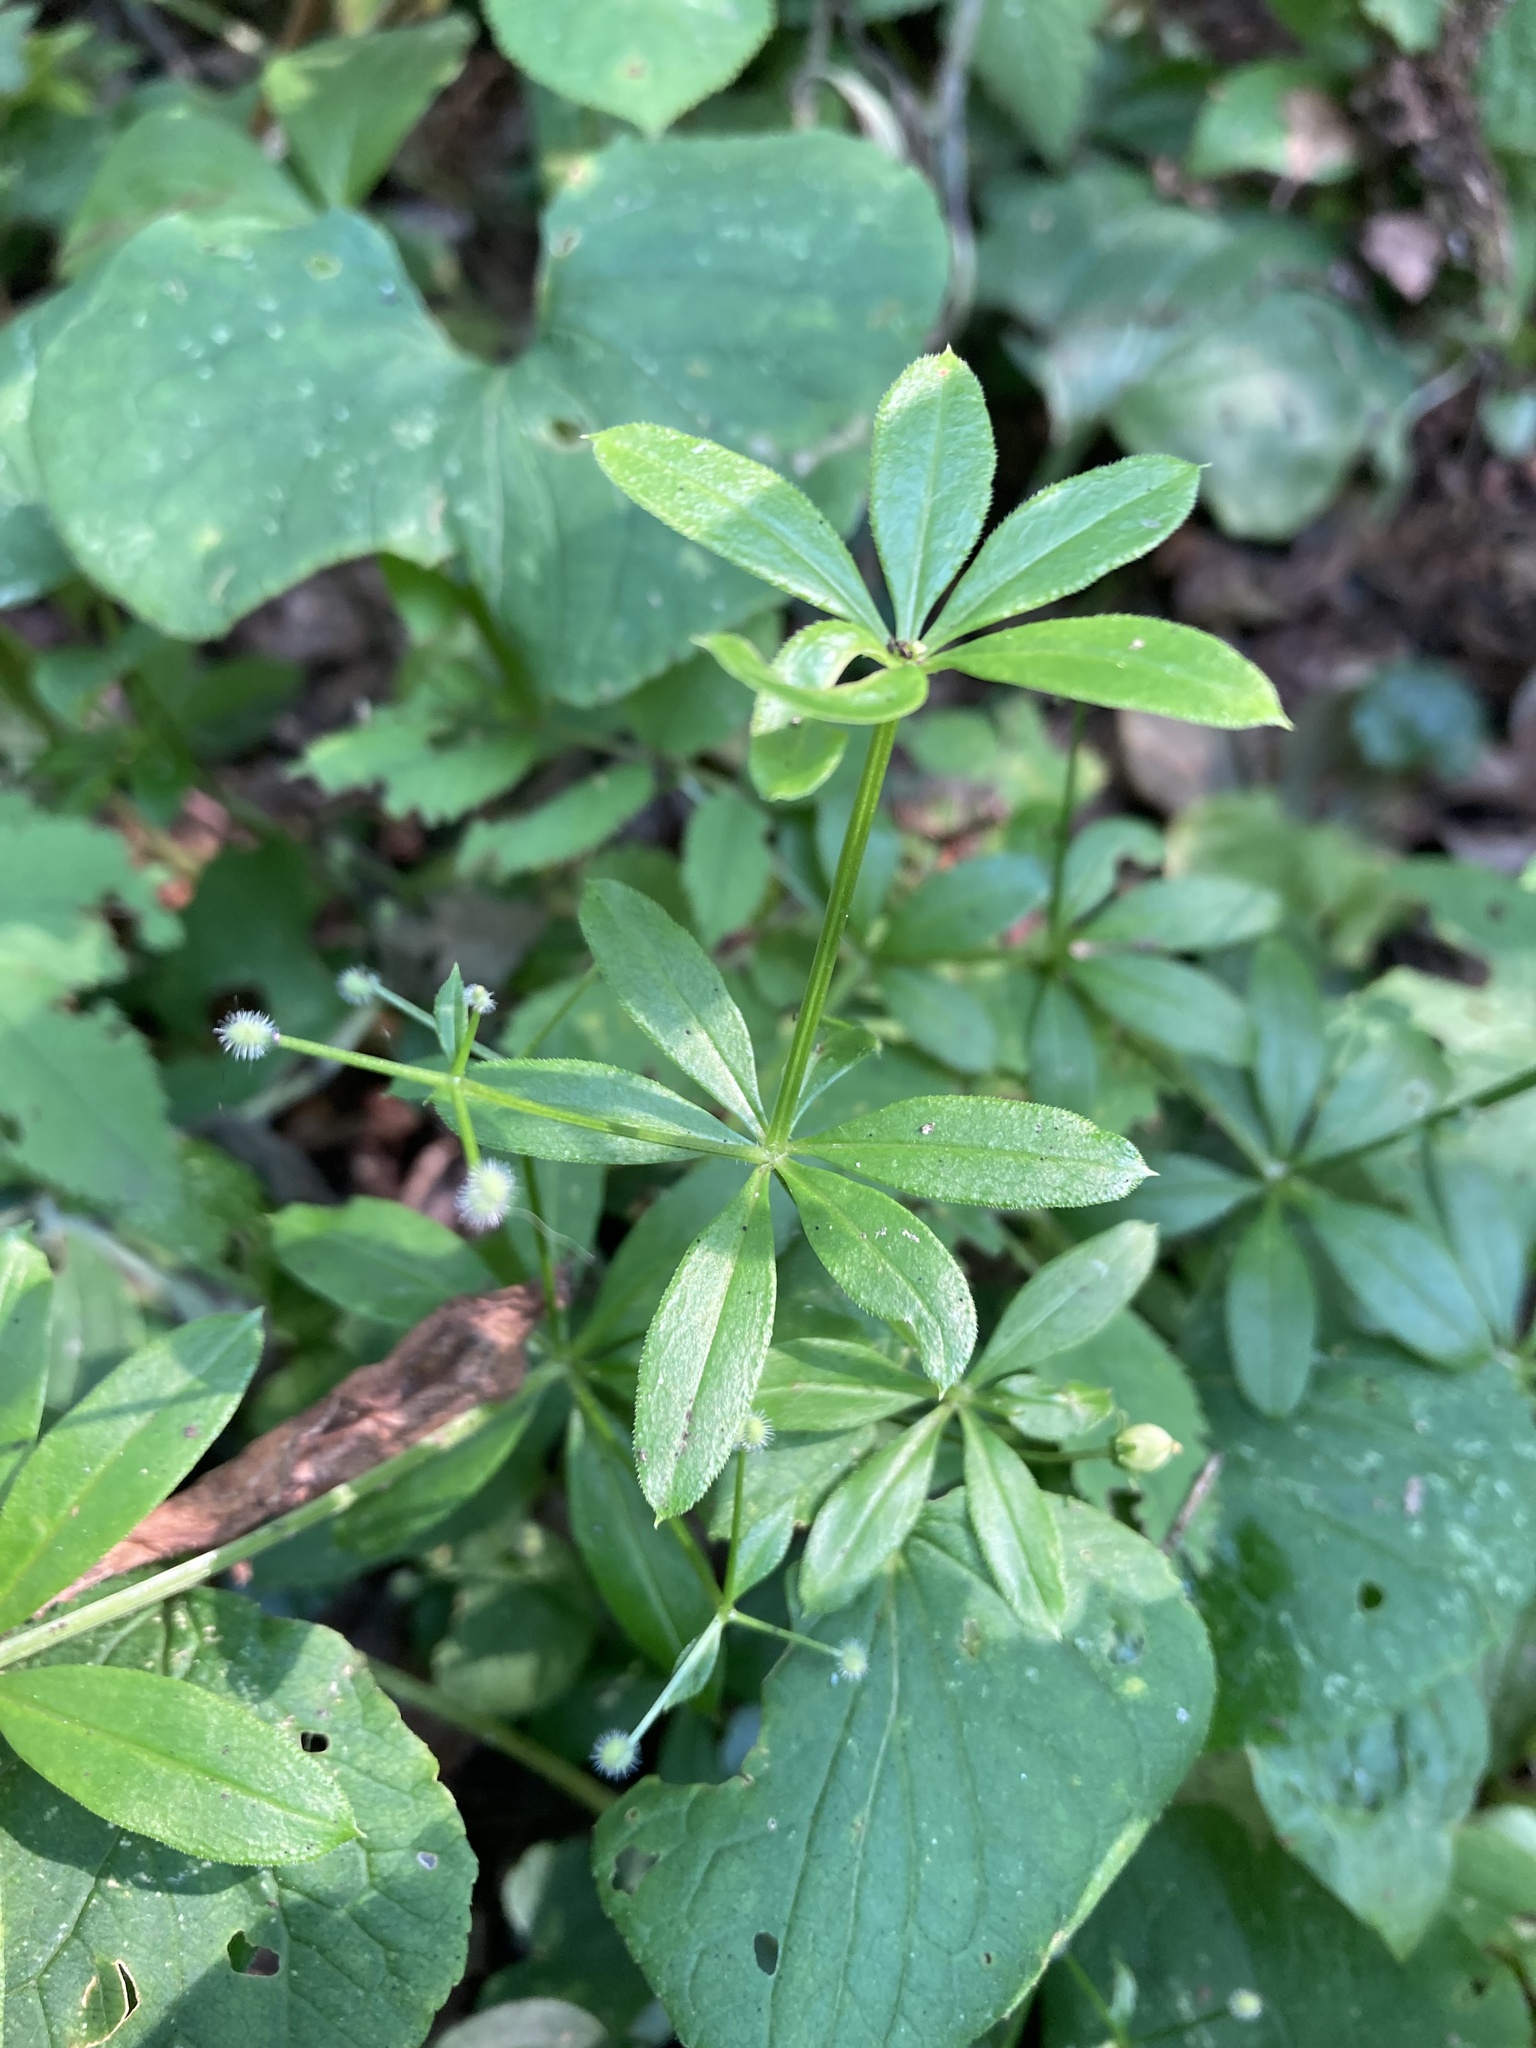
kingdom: Plantae
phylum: Tracheophyta
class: Magnoliopsida
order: Gentianales
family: Rubiaceae
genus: Galium
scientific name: Galium triflorum
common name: Fragrant bedstraw
